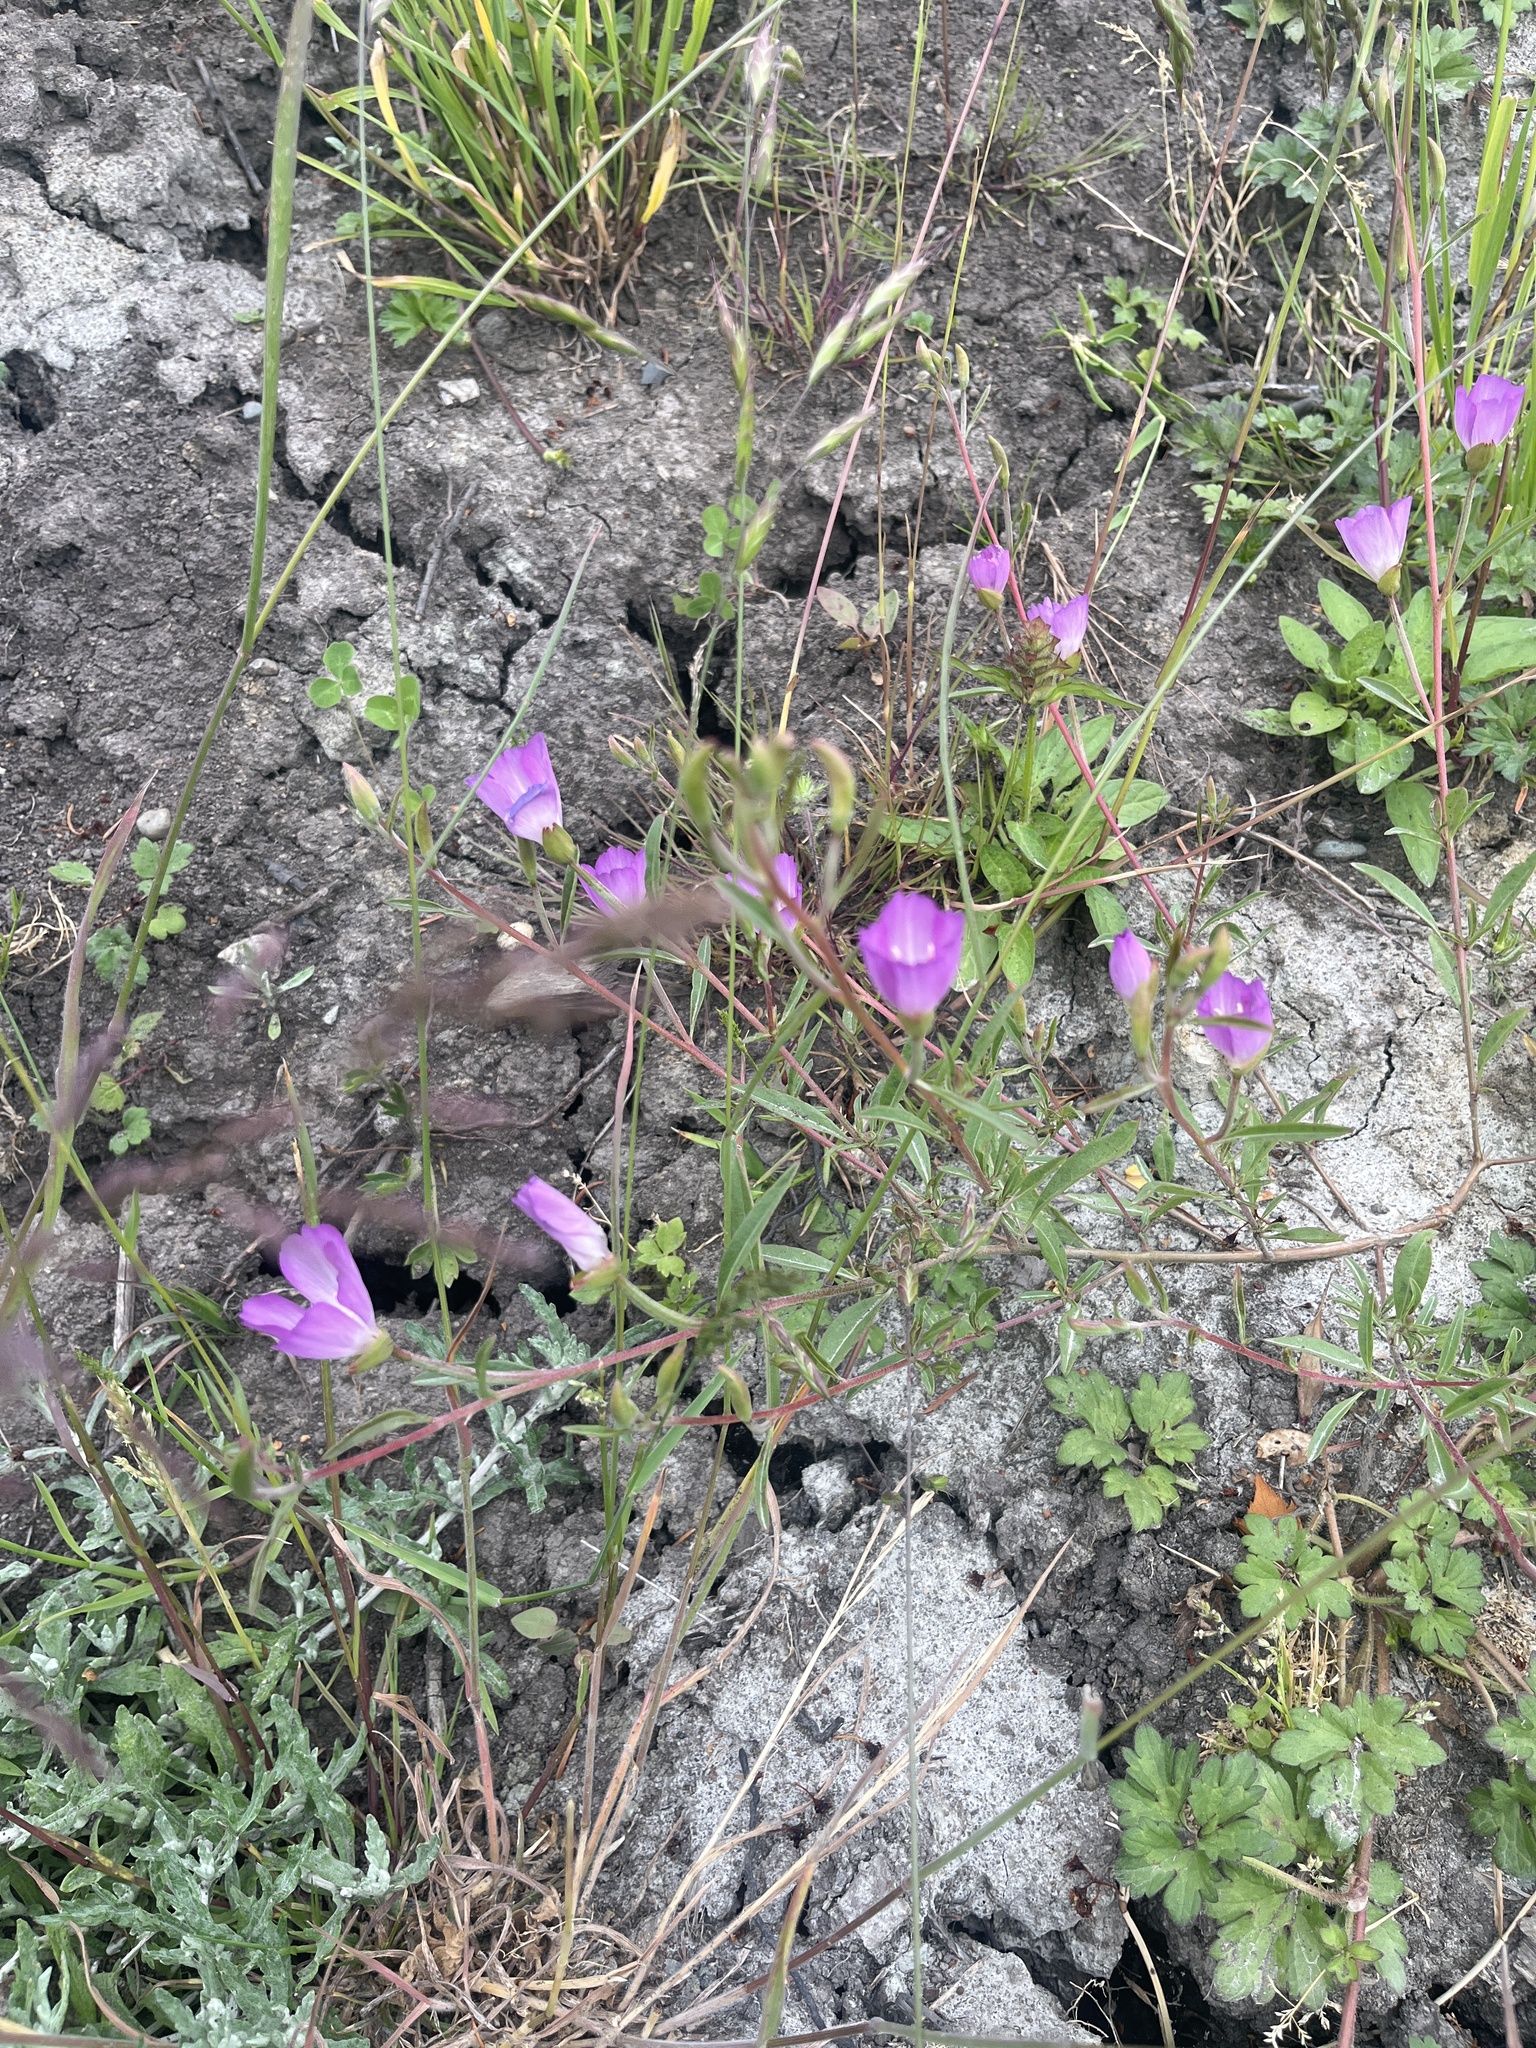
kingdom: Plantae
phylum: Tracheophyta
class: Magnoliopsida
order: Myrtales
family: Onagraceae
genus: Clarkia
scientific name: Clarkia amoena
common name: Godetia
